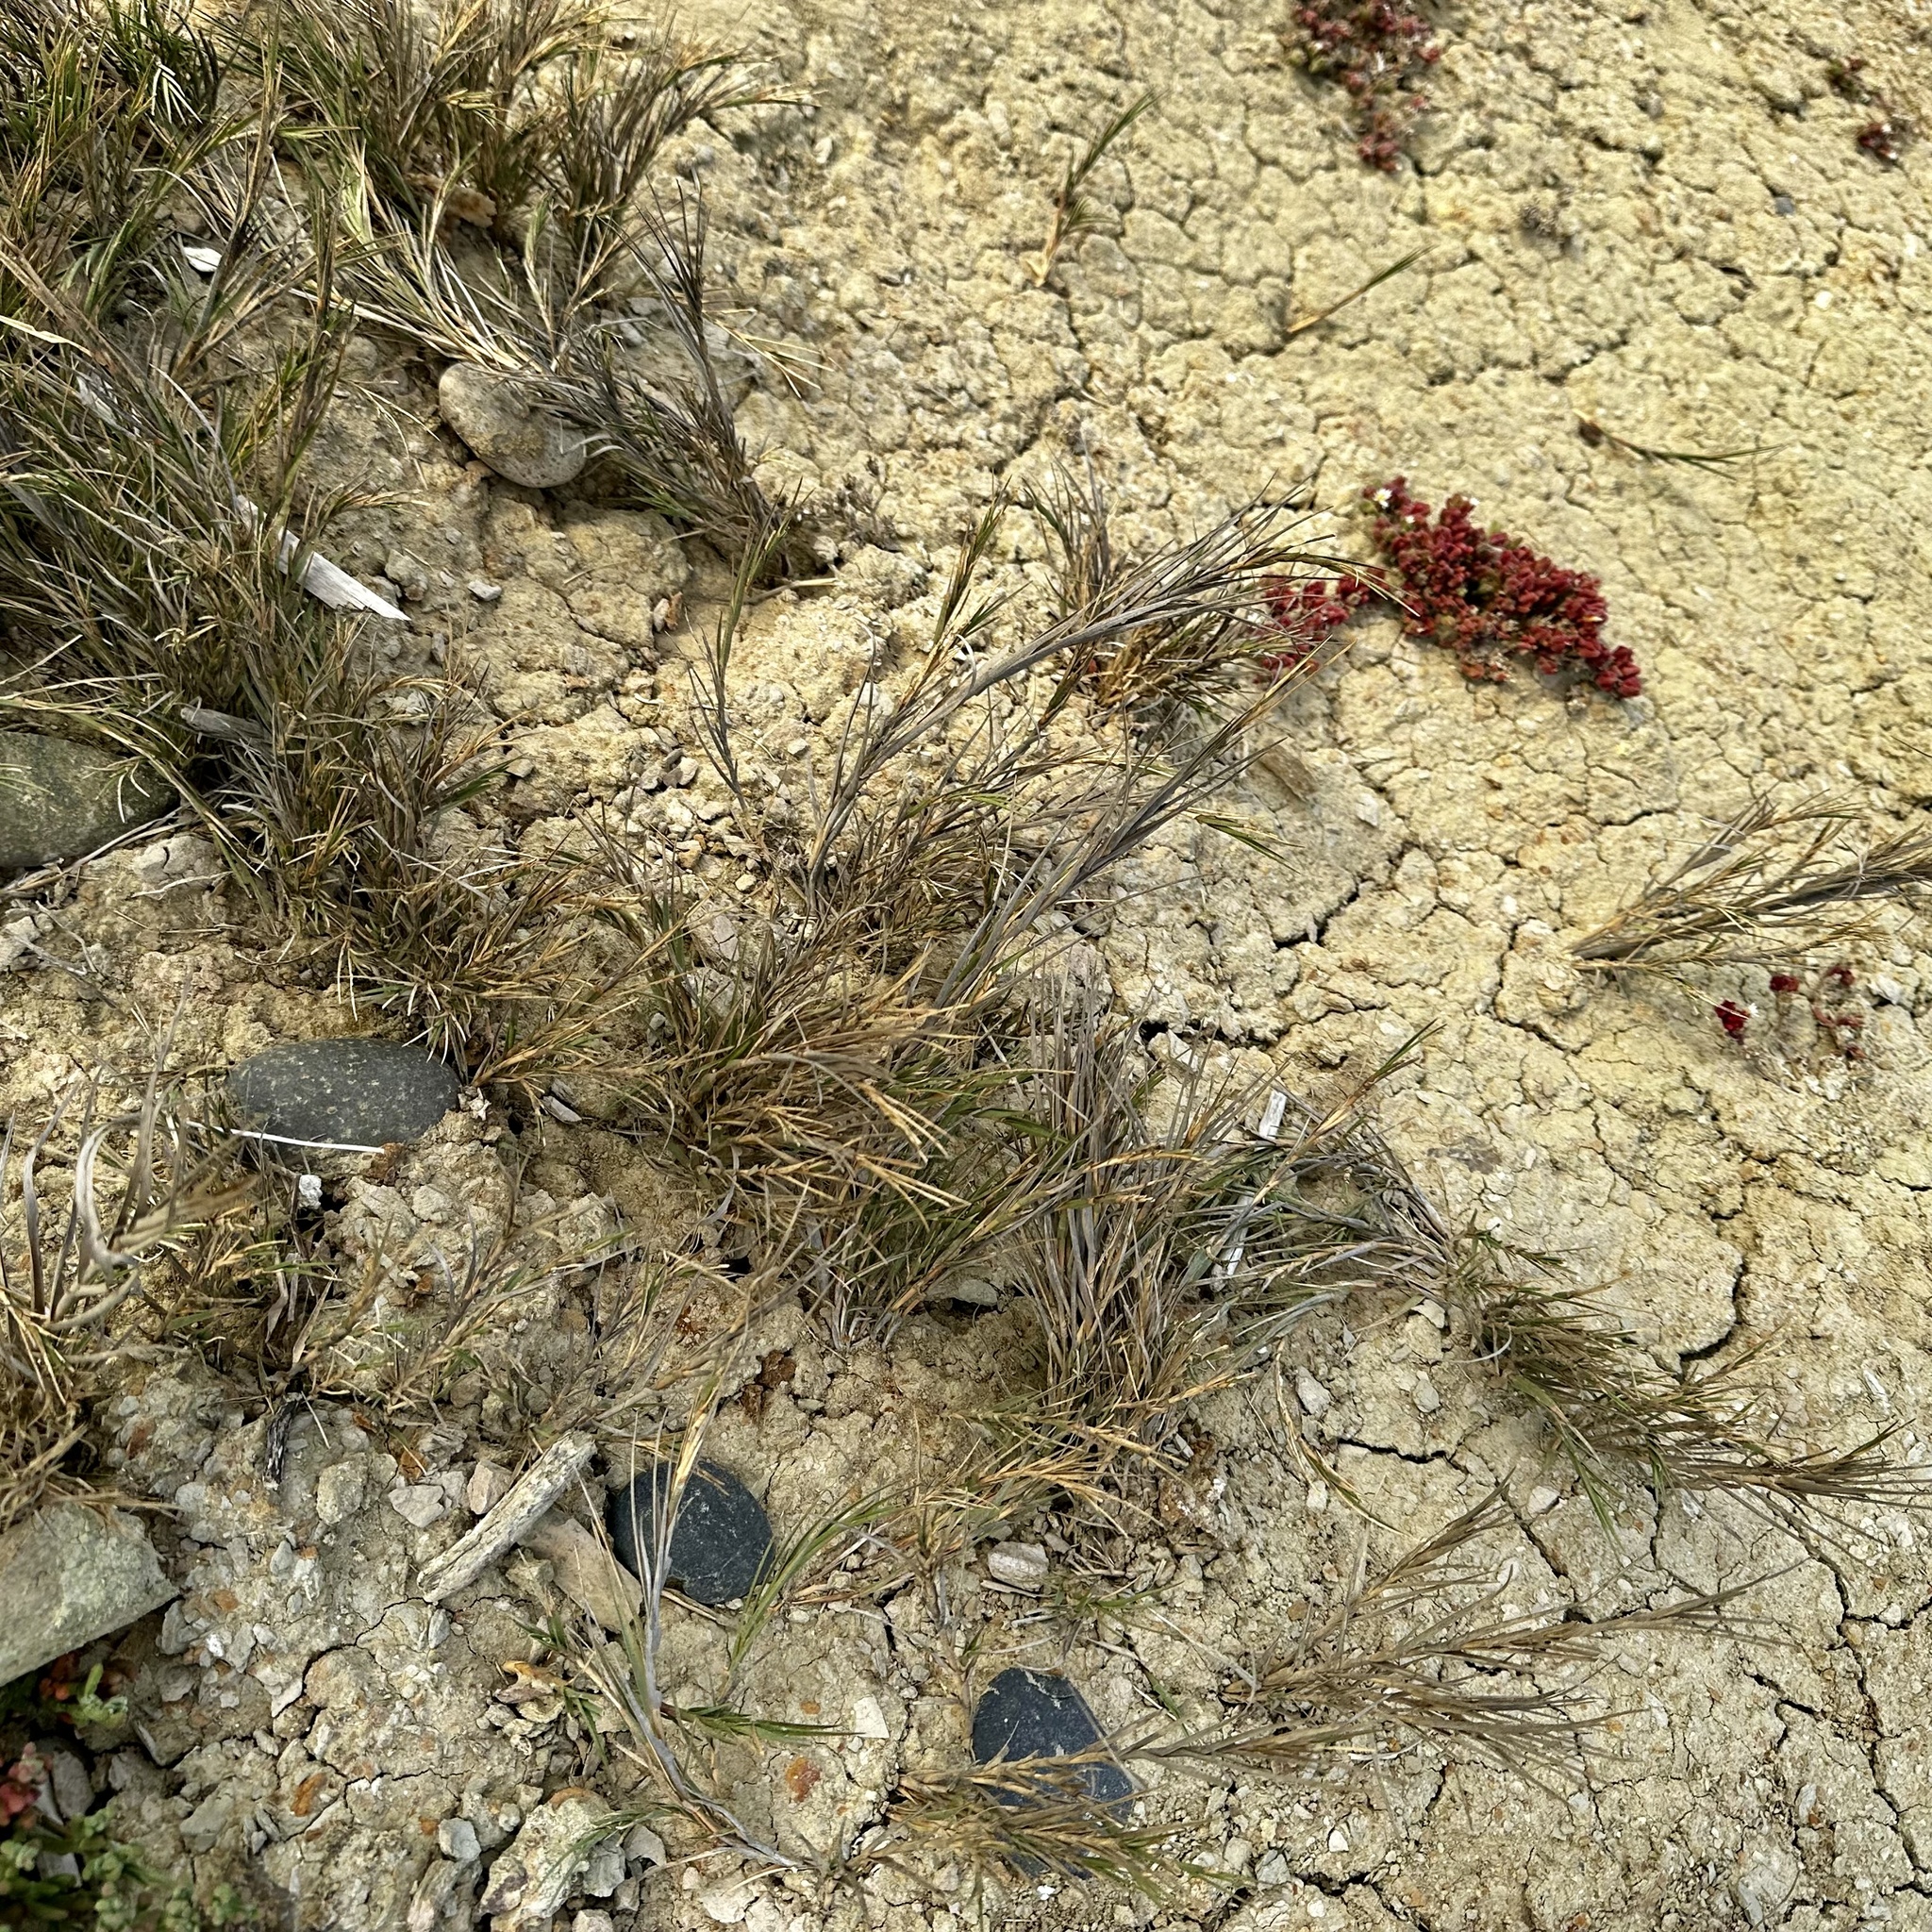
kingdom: Plantae
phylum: Tracheophyta
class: Liliopsida
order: Poales
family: Poaceae
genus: Distichlis
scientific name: Distichlis spicata
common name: Saltgrass
